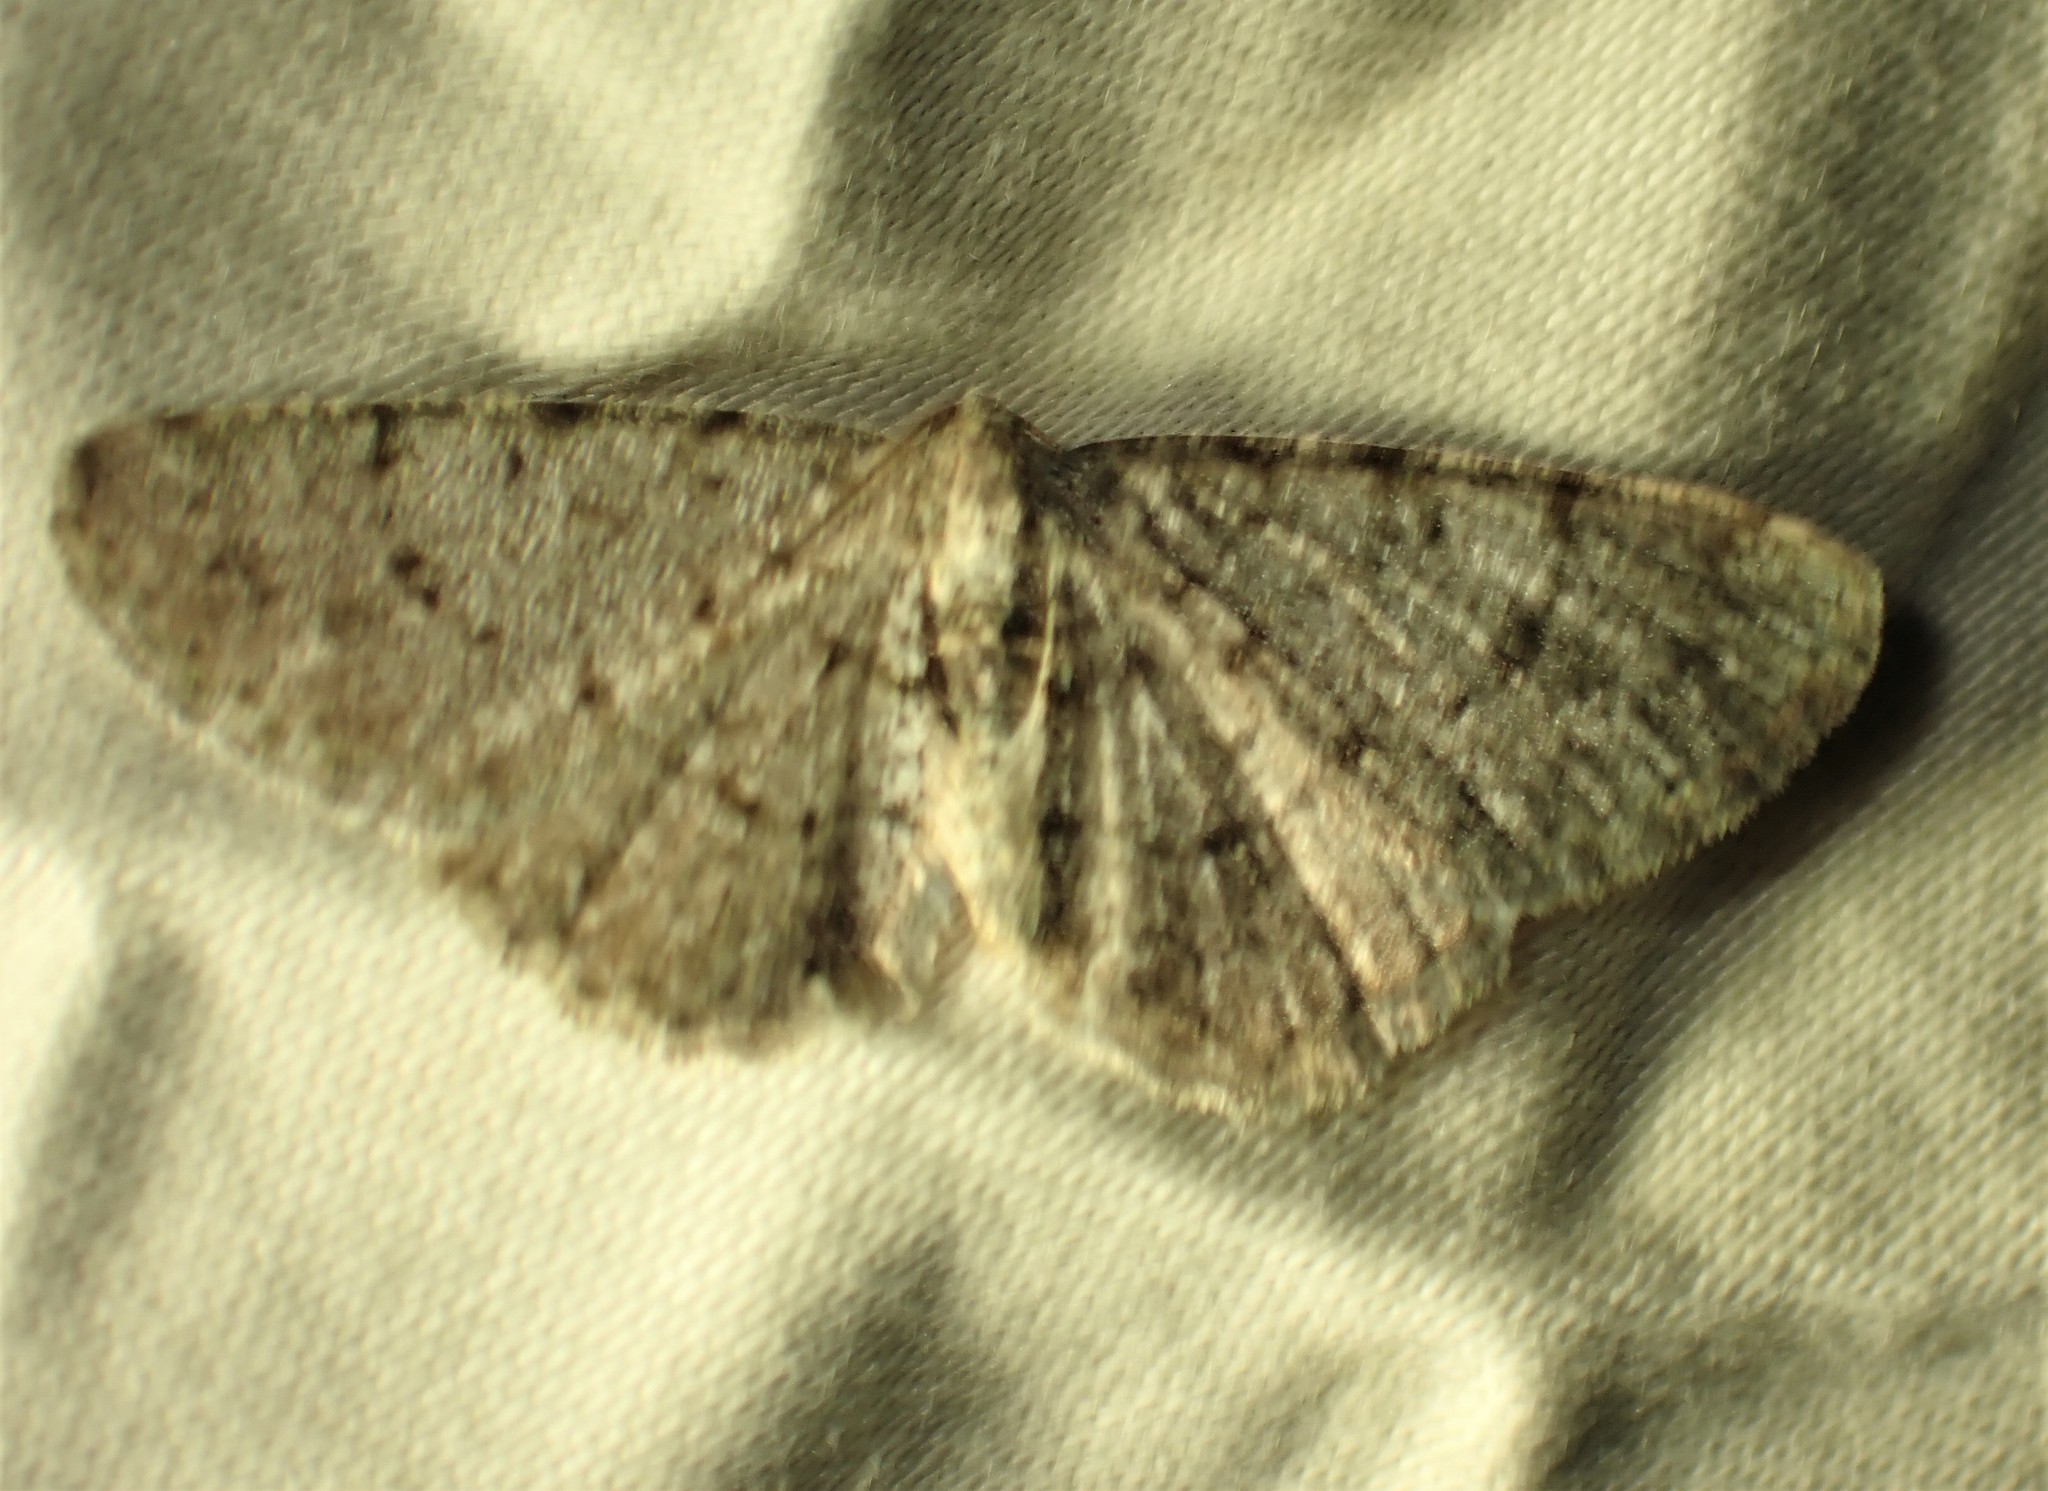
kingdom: Animalia
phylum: Arthropoda
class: Insecta
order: Lepidoptera
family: Geometridae
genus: Aethalura
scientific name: Aethalura intertexta
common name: Four-barred gray
